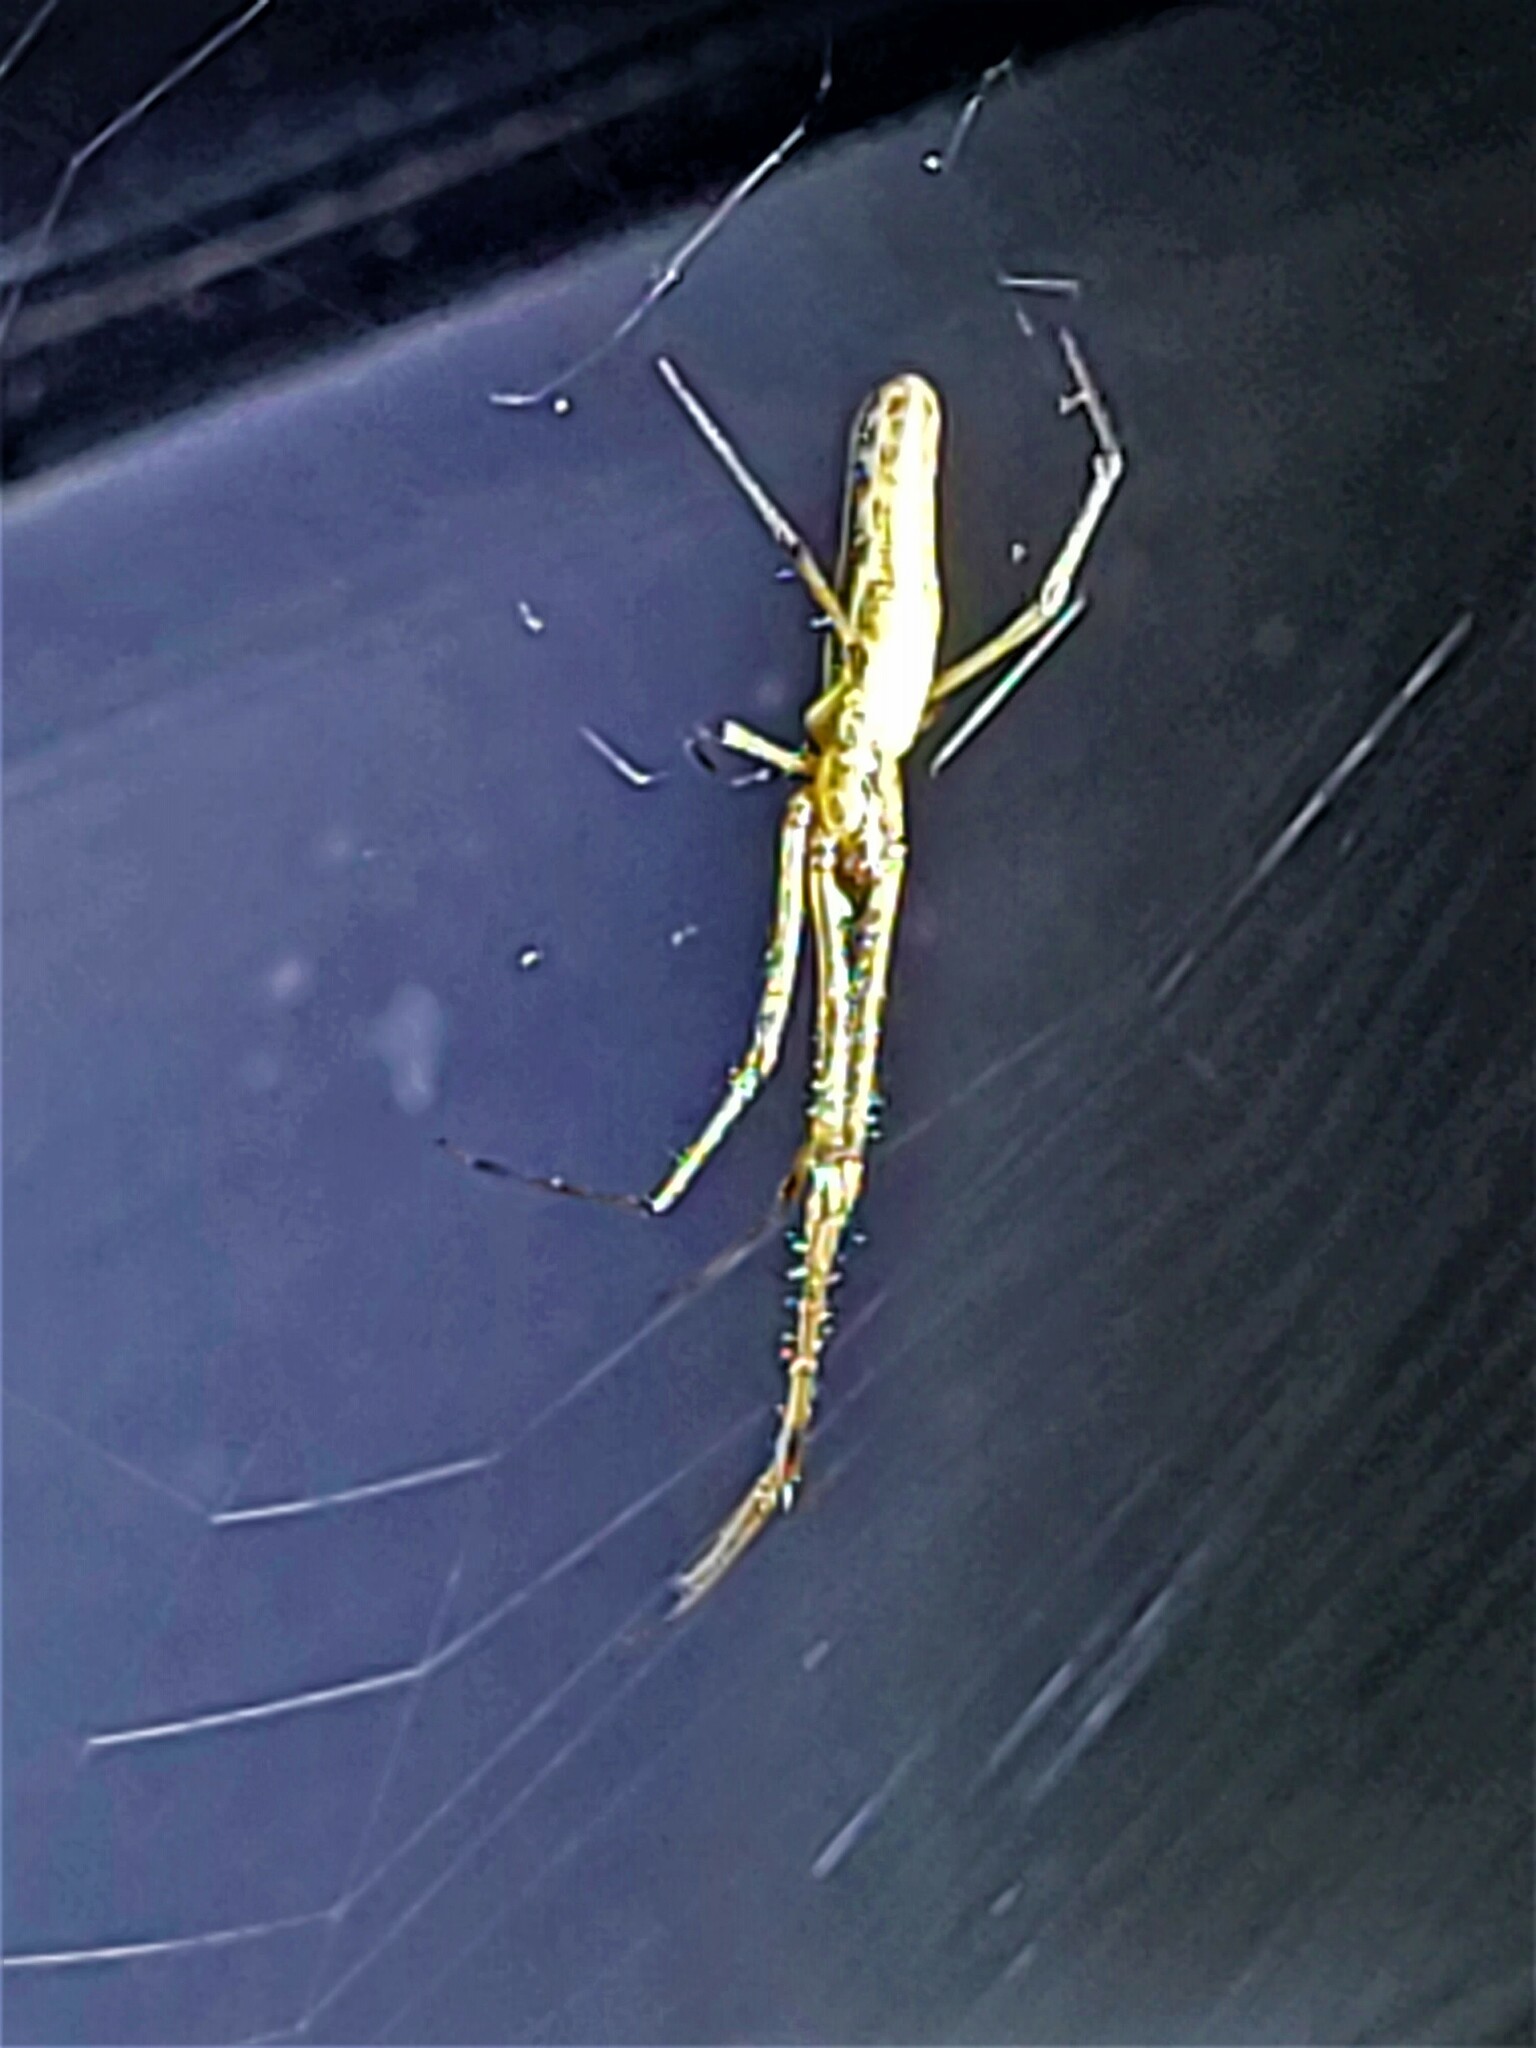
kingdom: Animalia
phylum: Arthropoda
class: Arachnida
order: Araneae
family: Tetragnathidae
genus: Tetragnatha
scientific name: Tetragnatha laboriosa
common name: Longjawed orb weavers
